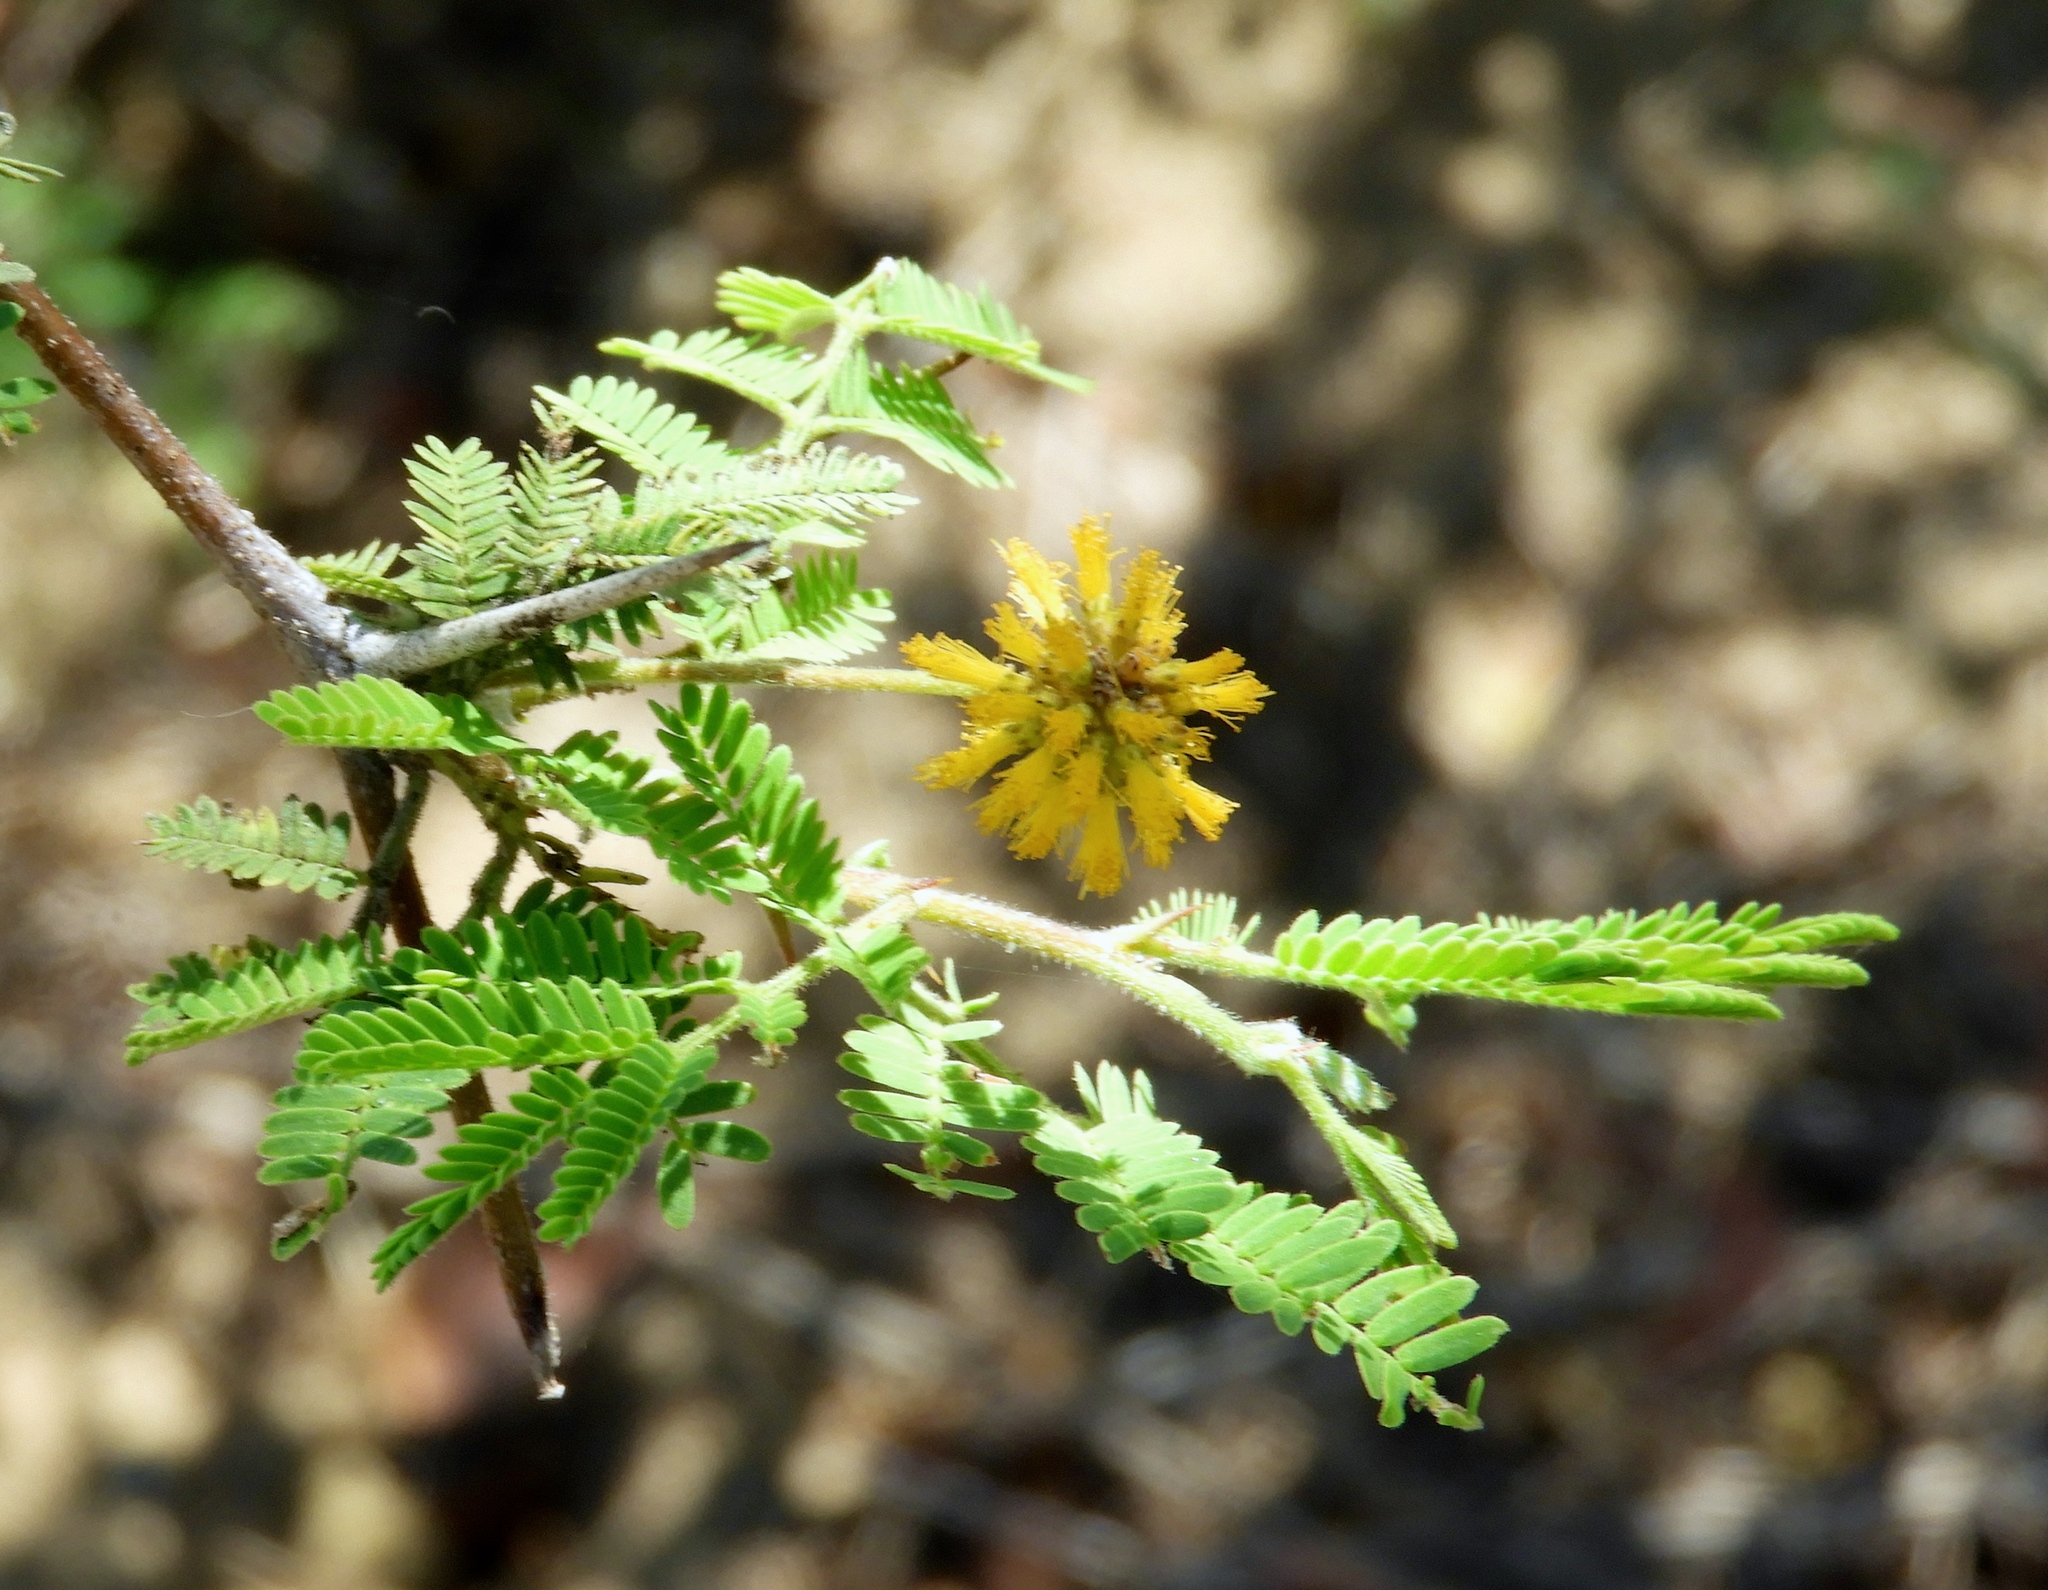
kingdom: Plantae
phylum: Tracheophyta
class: Magnoliopsida
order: Fabales
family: Fabaceae
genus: Vachellia
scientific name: Vachellia farnesiana
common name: Sweet acacia
